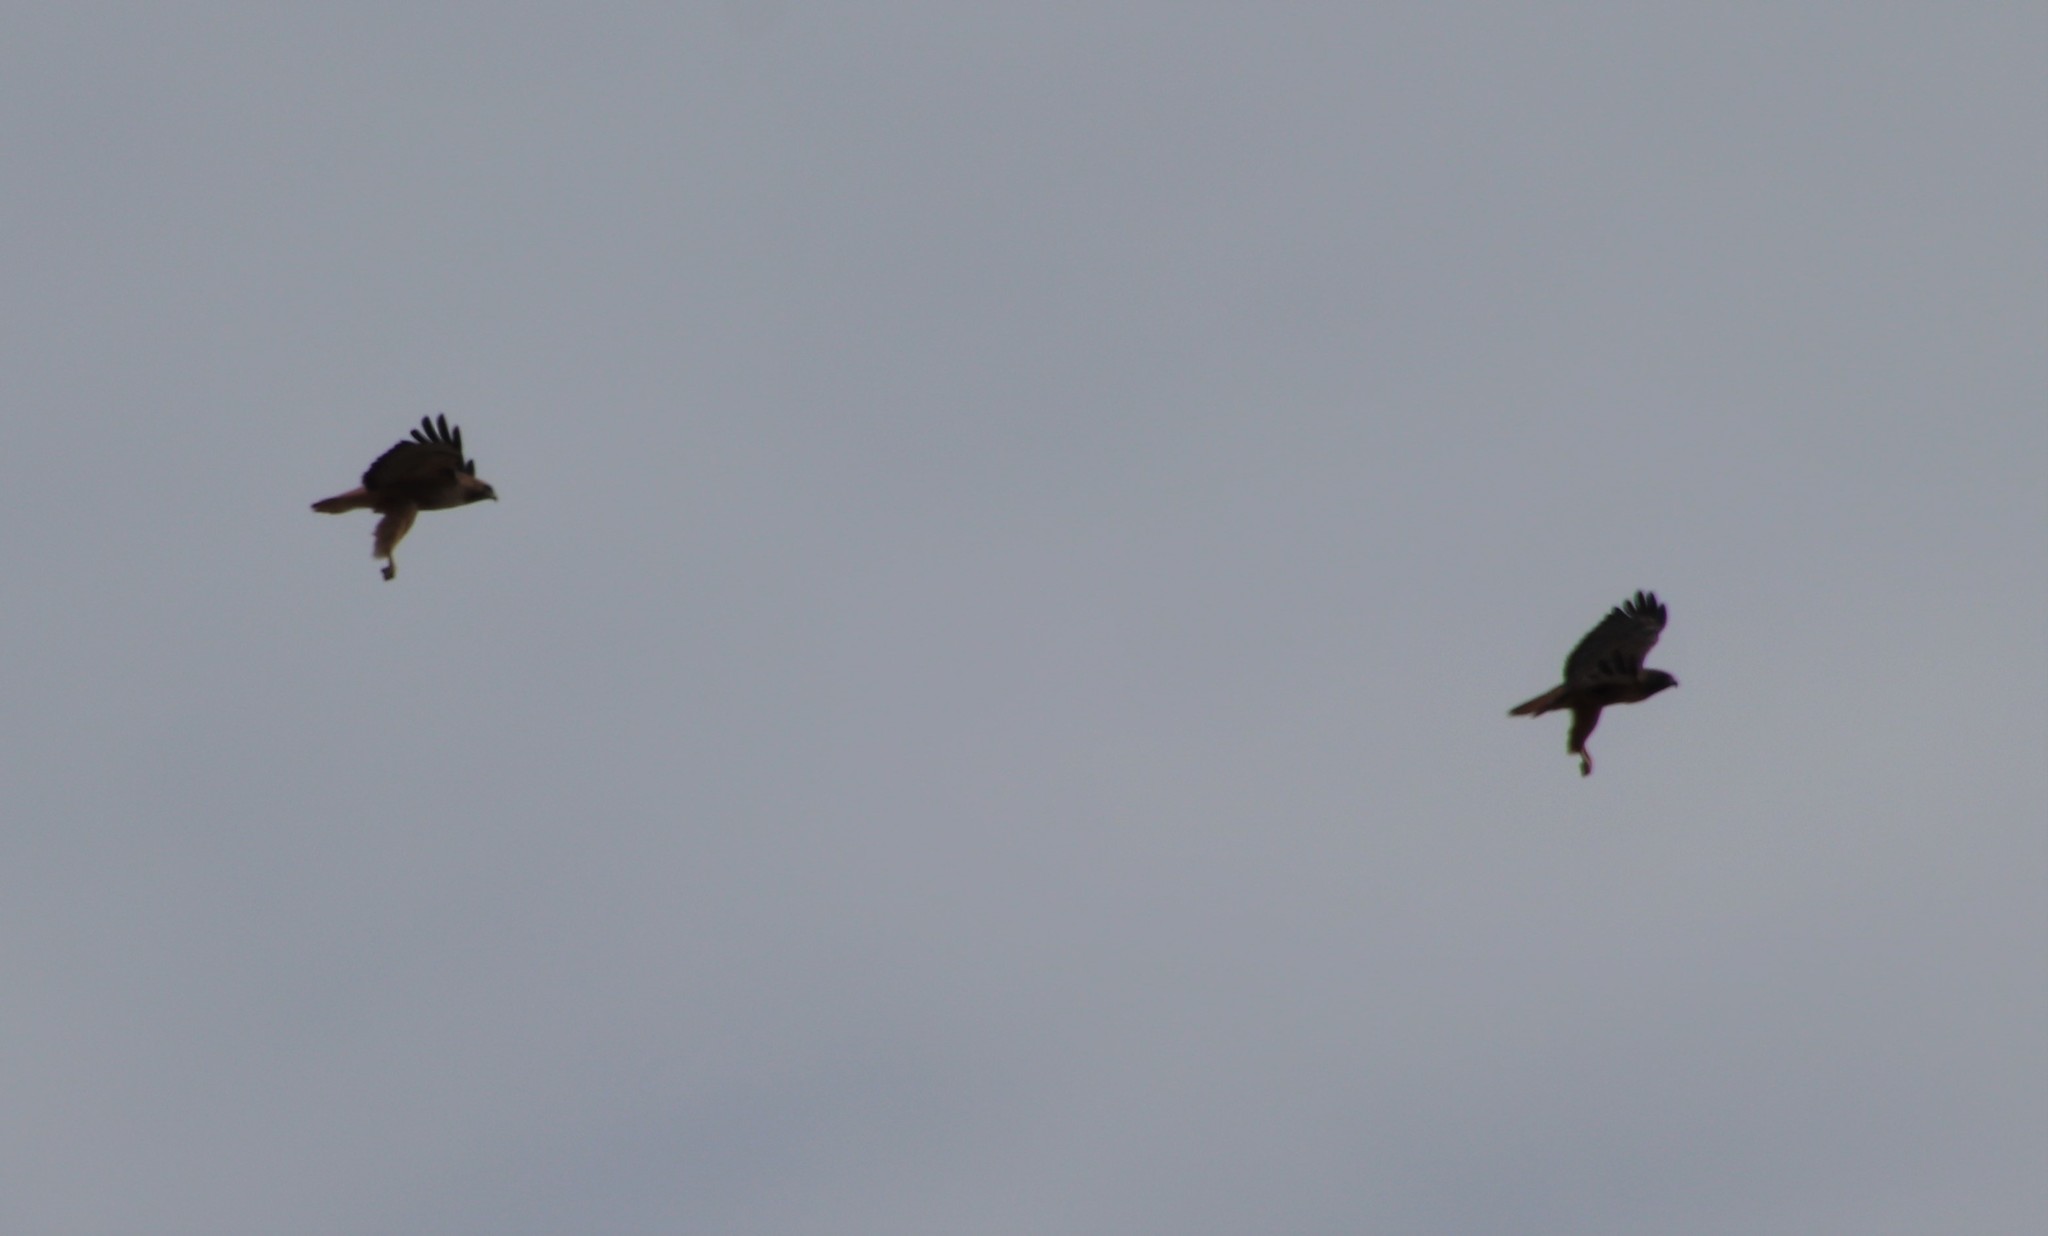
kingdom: Animalia
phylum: Chordata
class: Aves
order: Accipitriformes
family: Accipitridae
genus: Buteo
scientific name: Buteo jamaicensis
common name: Red-tailed hawk
